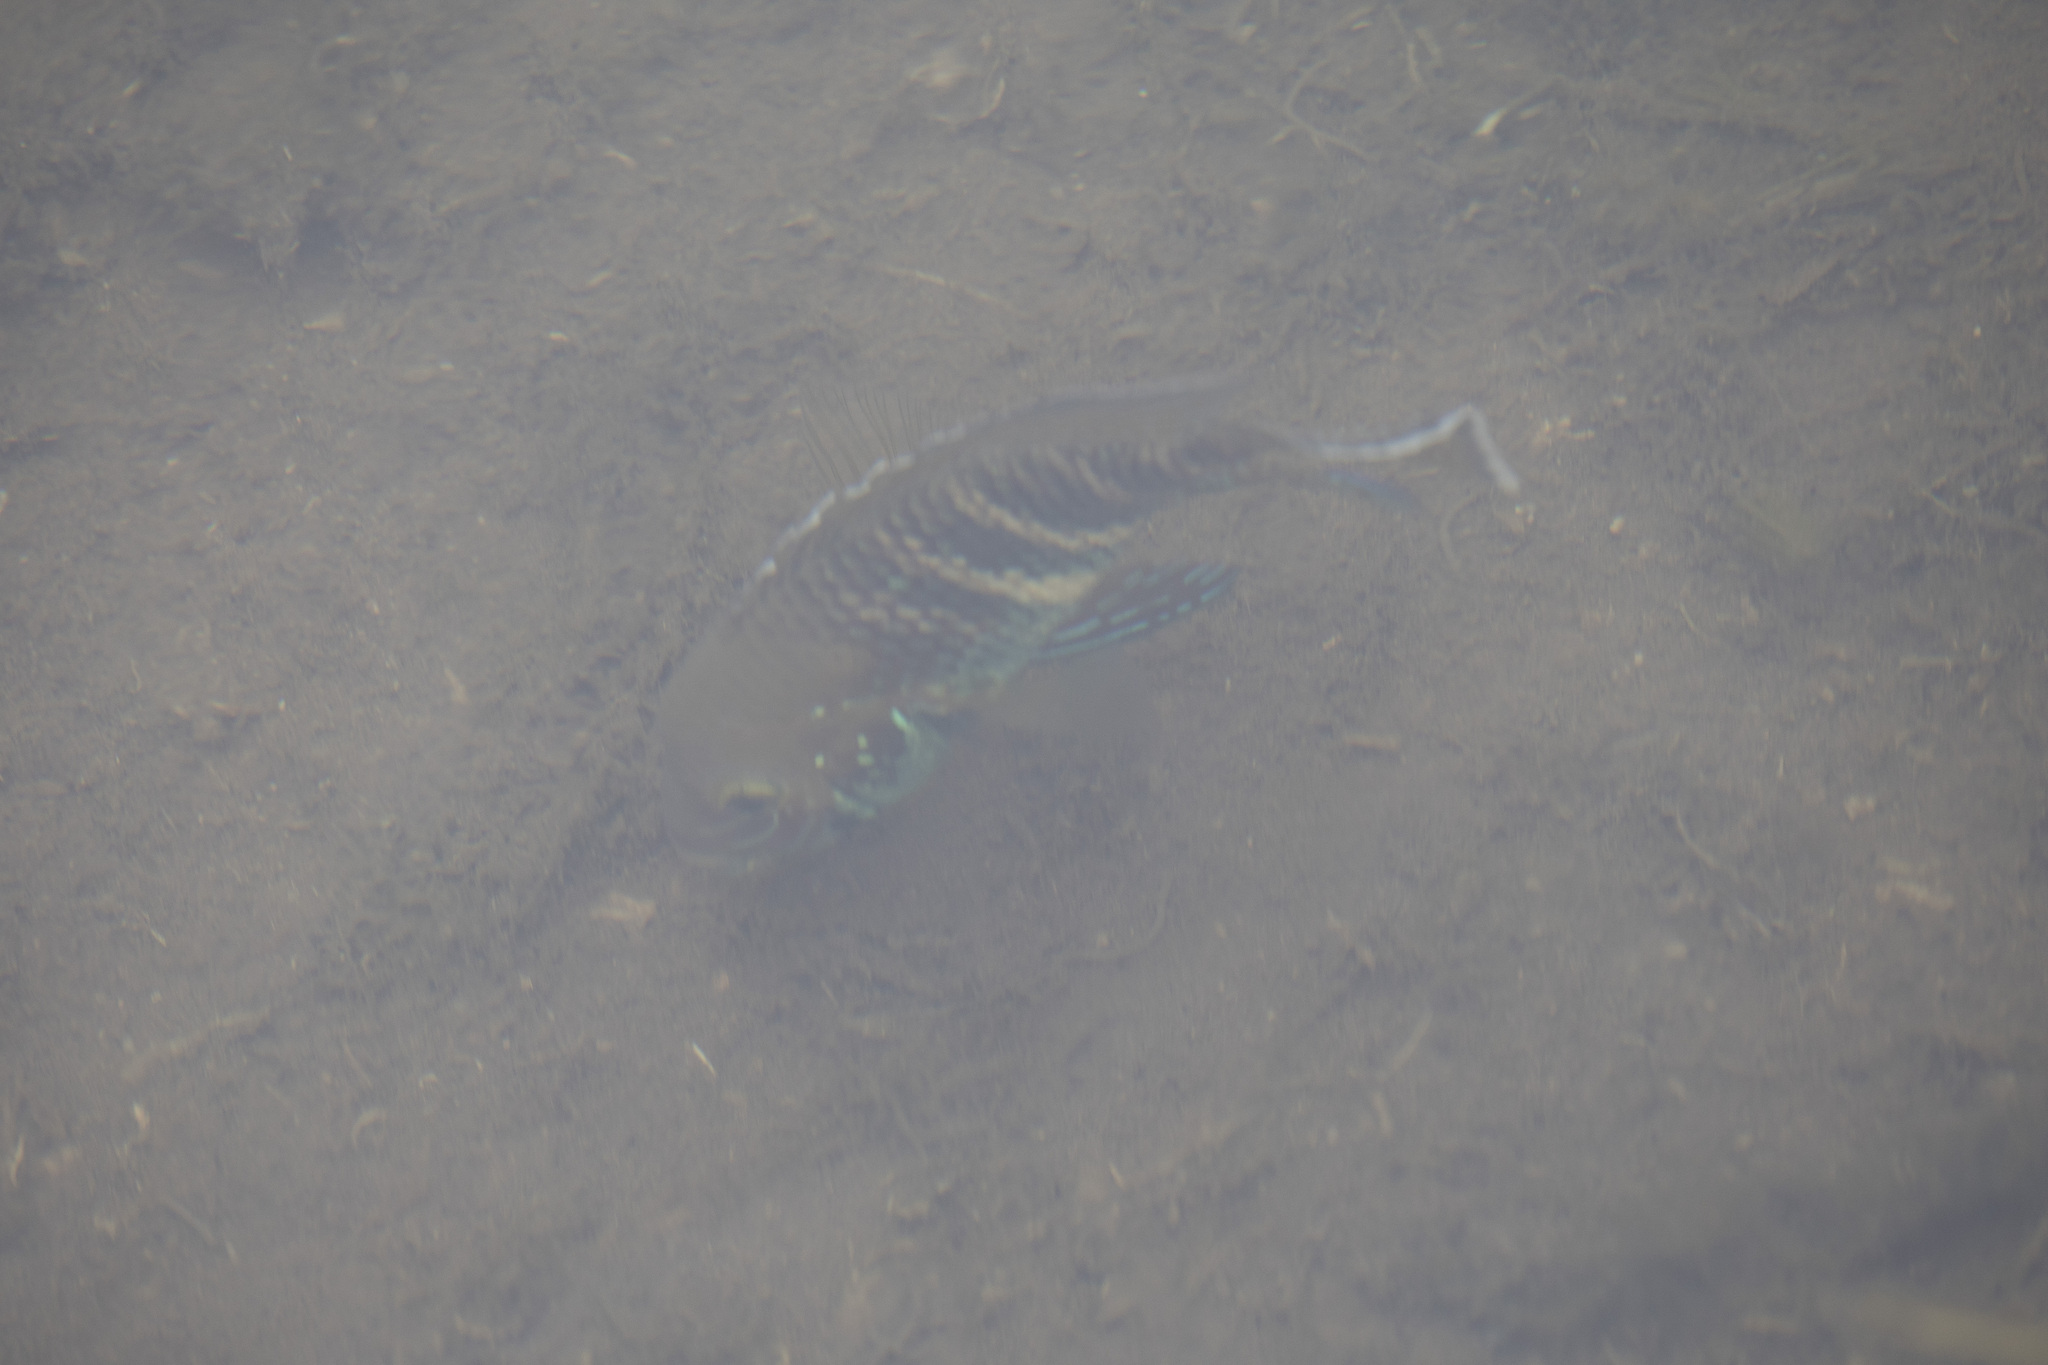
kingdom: Animalia
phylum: Chordata
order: Perciformes
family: Cichlidae
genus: Andinoacara
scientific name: Andinoacara stalsbergi
